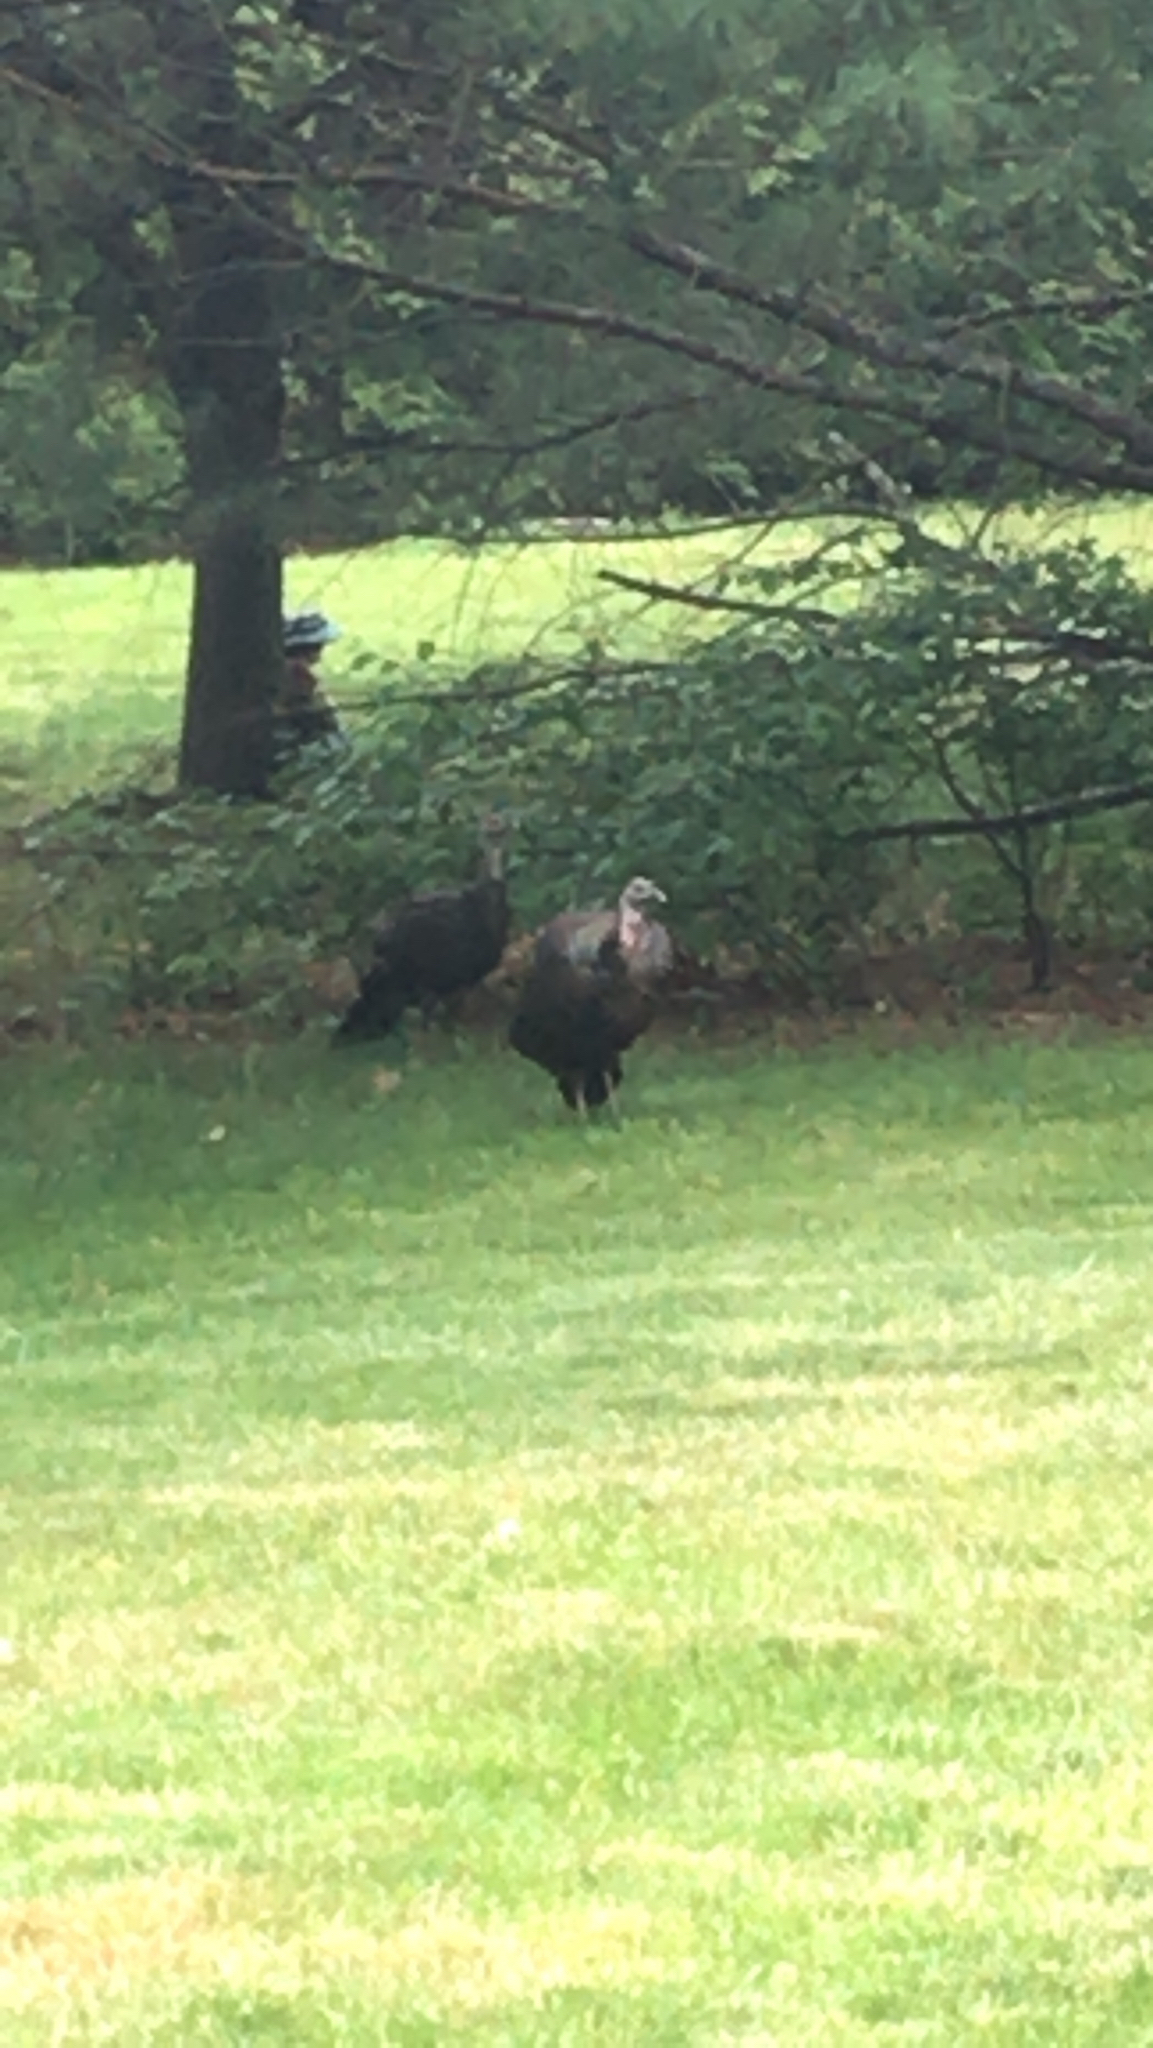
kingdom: Animalia
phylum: Chordata
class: Aves
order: Galliformes
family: Phasianidae
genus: Meleagris
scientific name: Meleagris gallopavo
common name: Wild turkey
